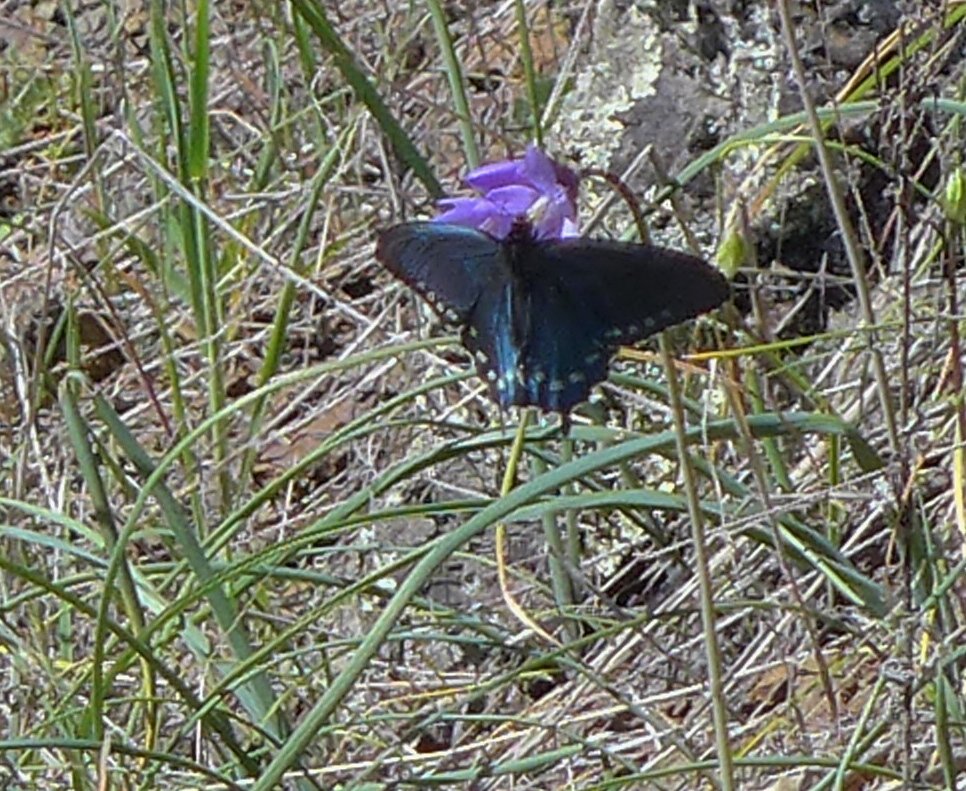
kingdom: Animalia
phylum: Arthropoda
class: Insecta
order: Lepidoptera
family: Papilionidae
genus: Battus
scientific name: Battus philenor
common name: Pipevine swallowtail
